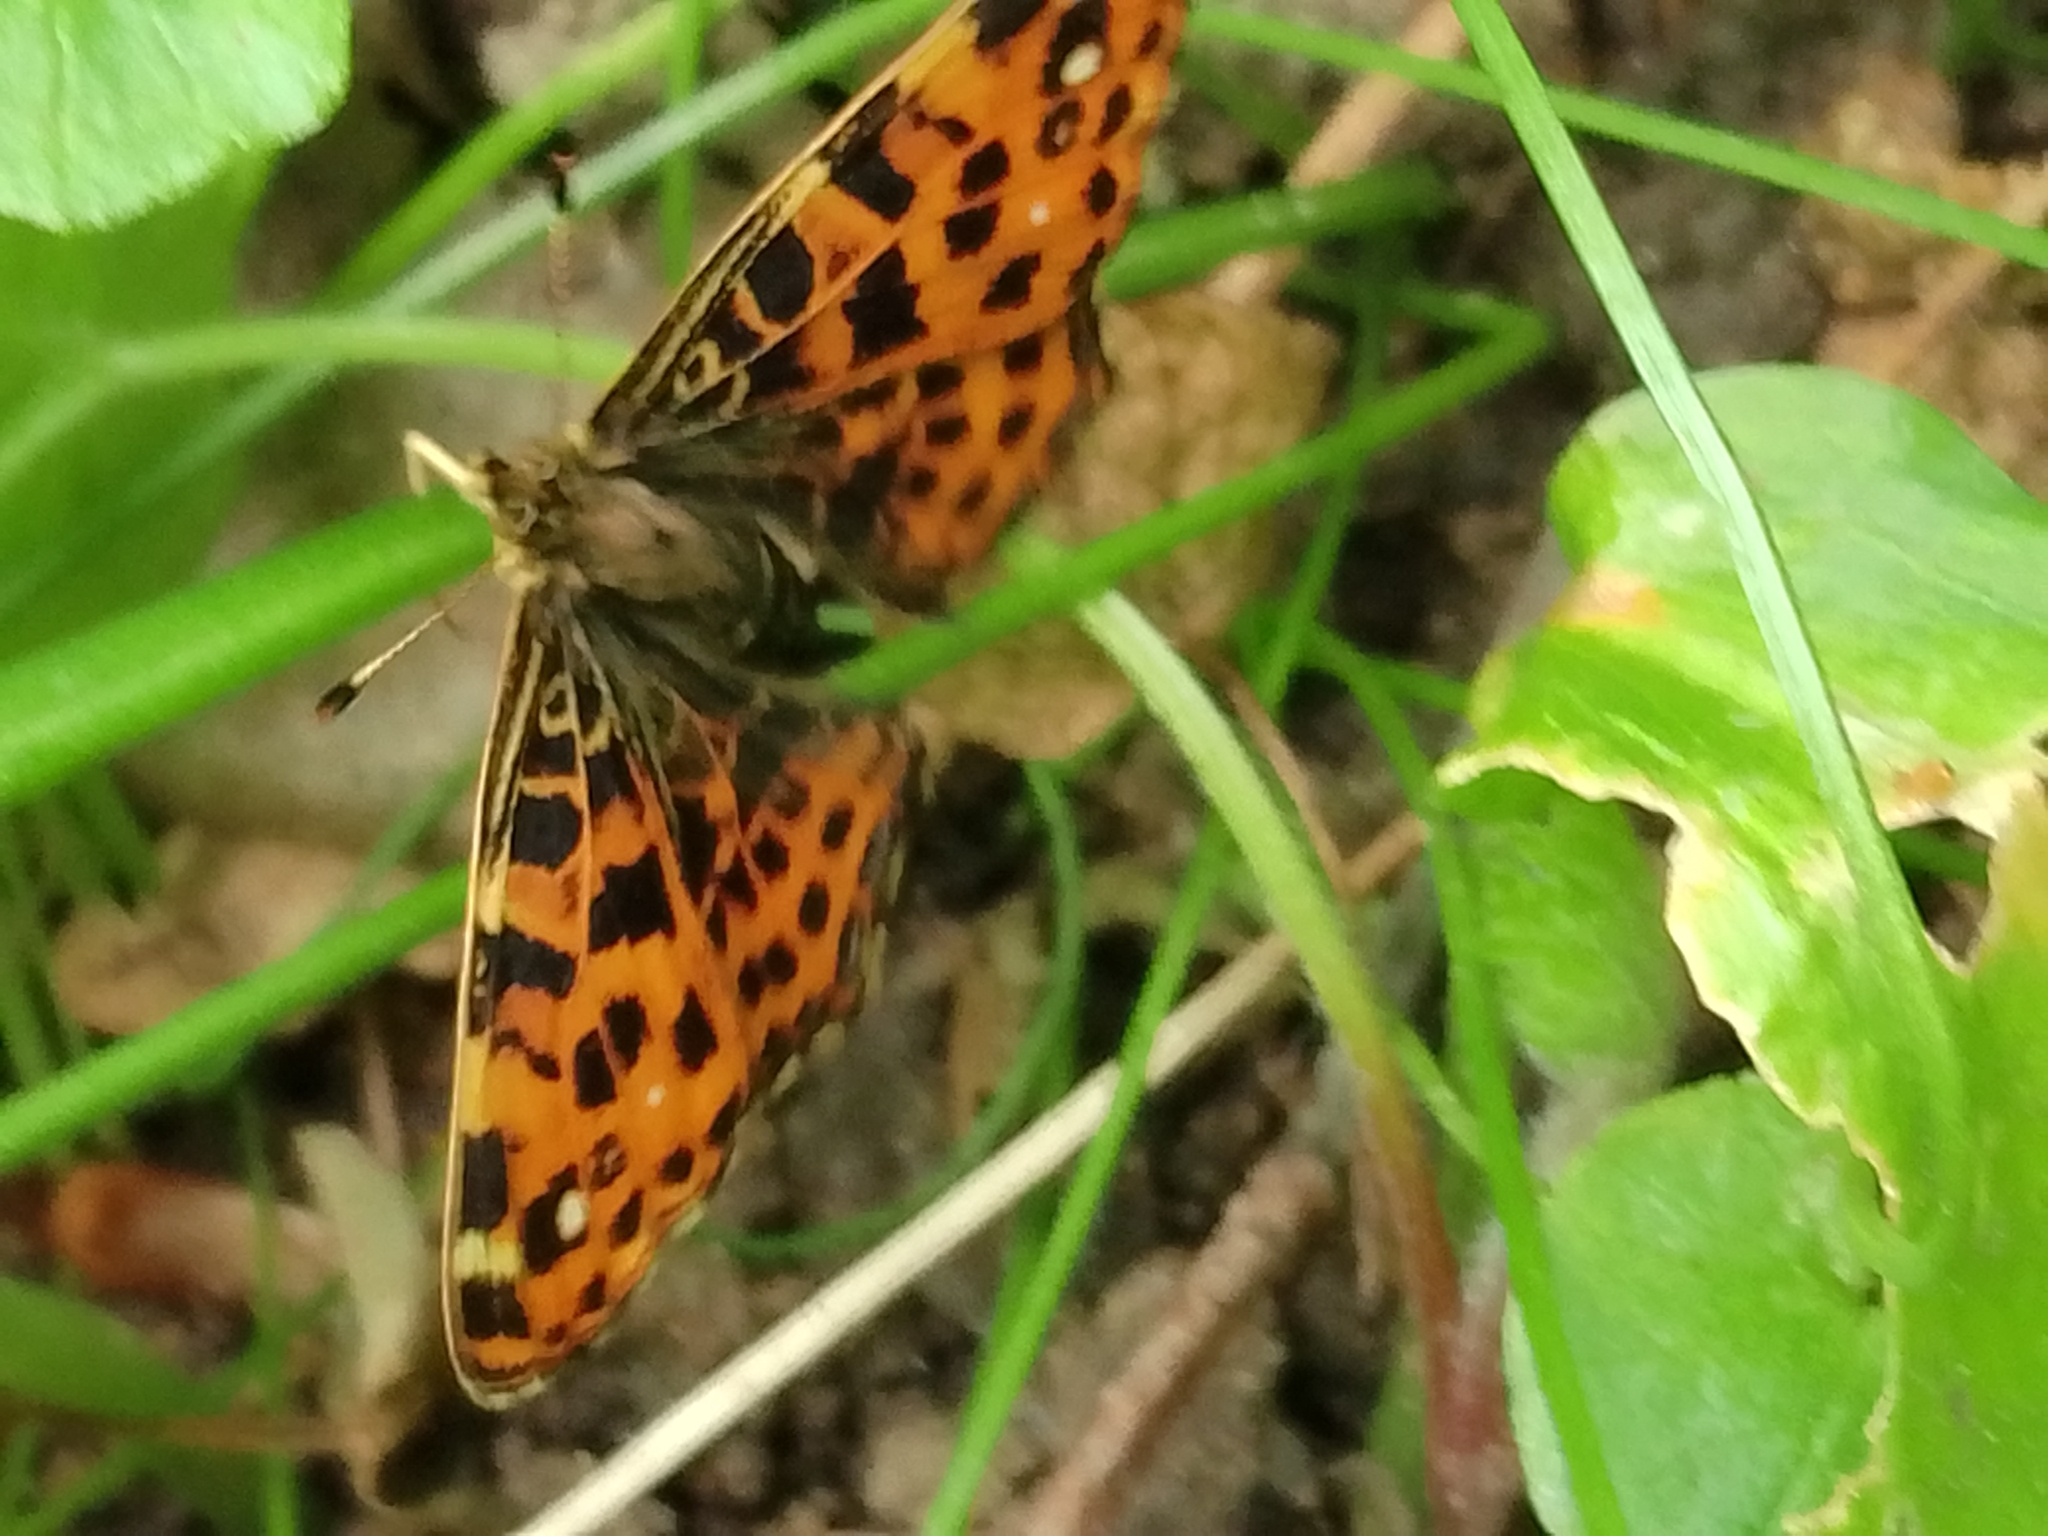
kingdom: Animalia
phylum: Arthropoda
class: Insecta
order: Lepidoptera
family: Nymphalidae
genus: Araschnia
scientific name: Araschnia levana
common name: Map butterfly
